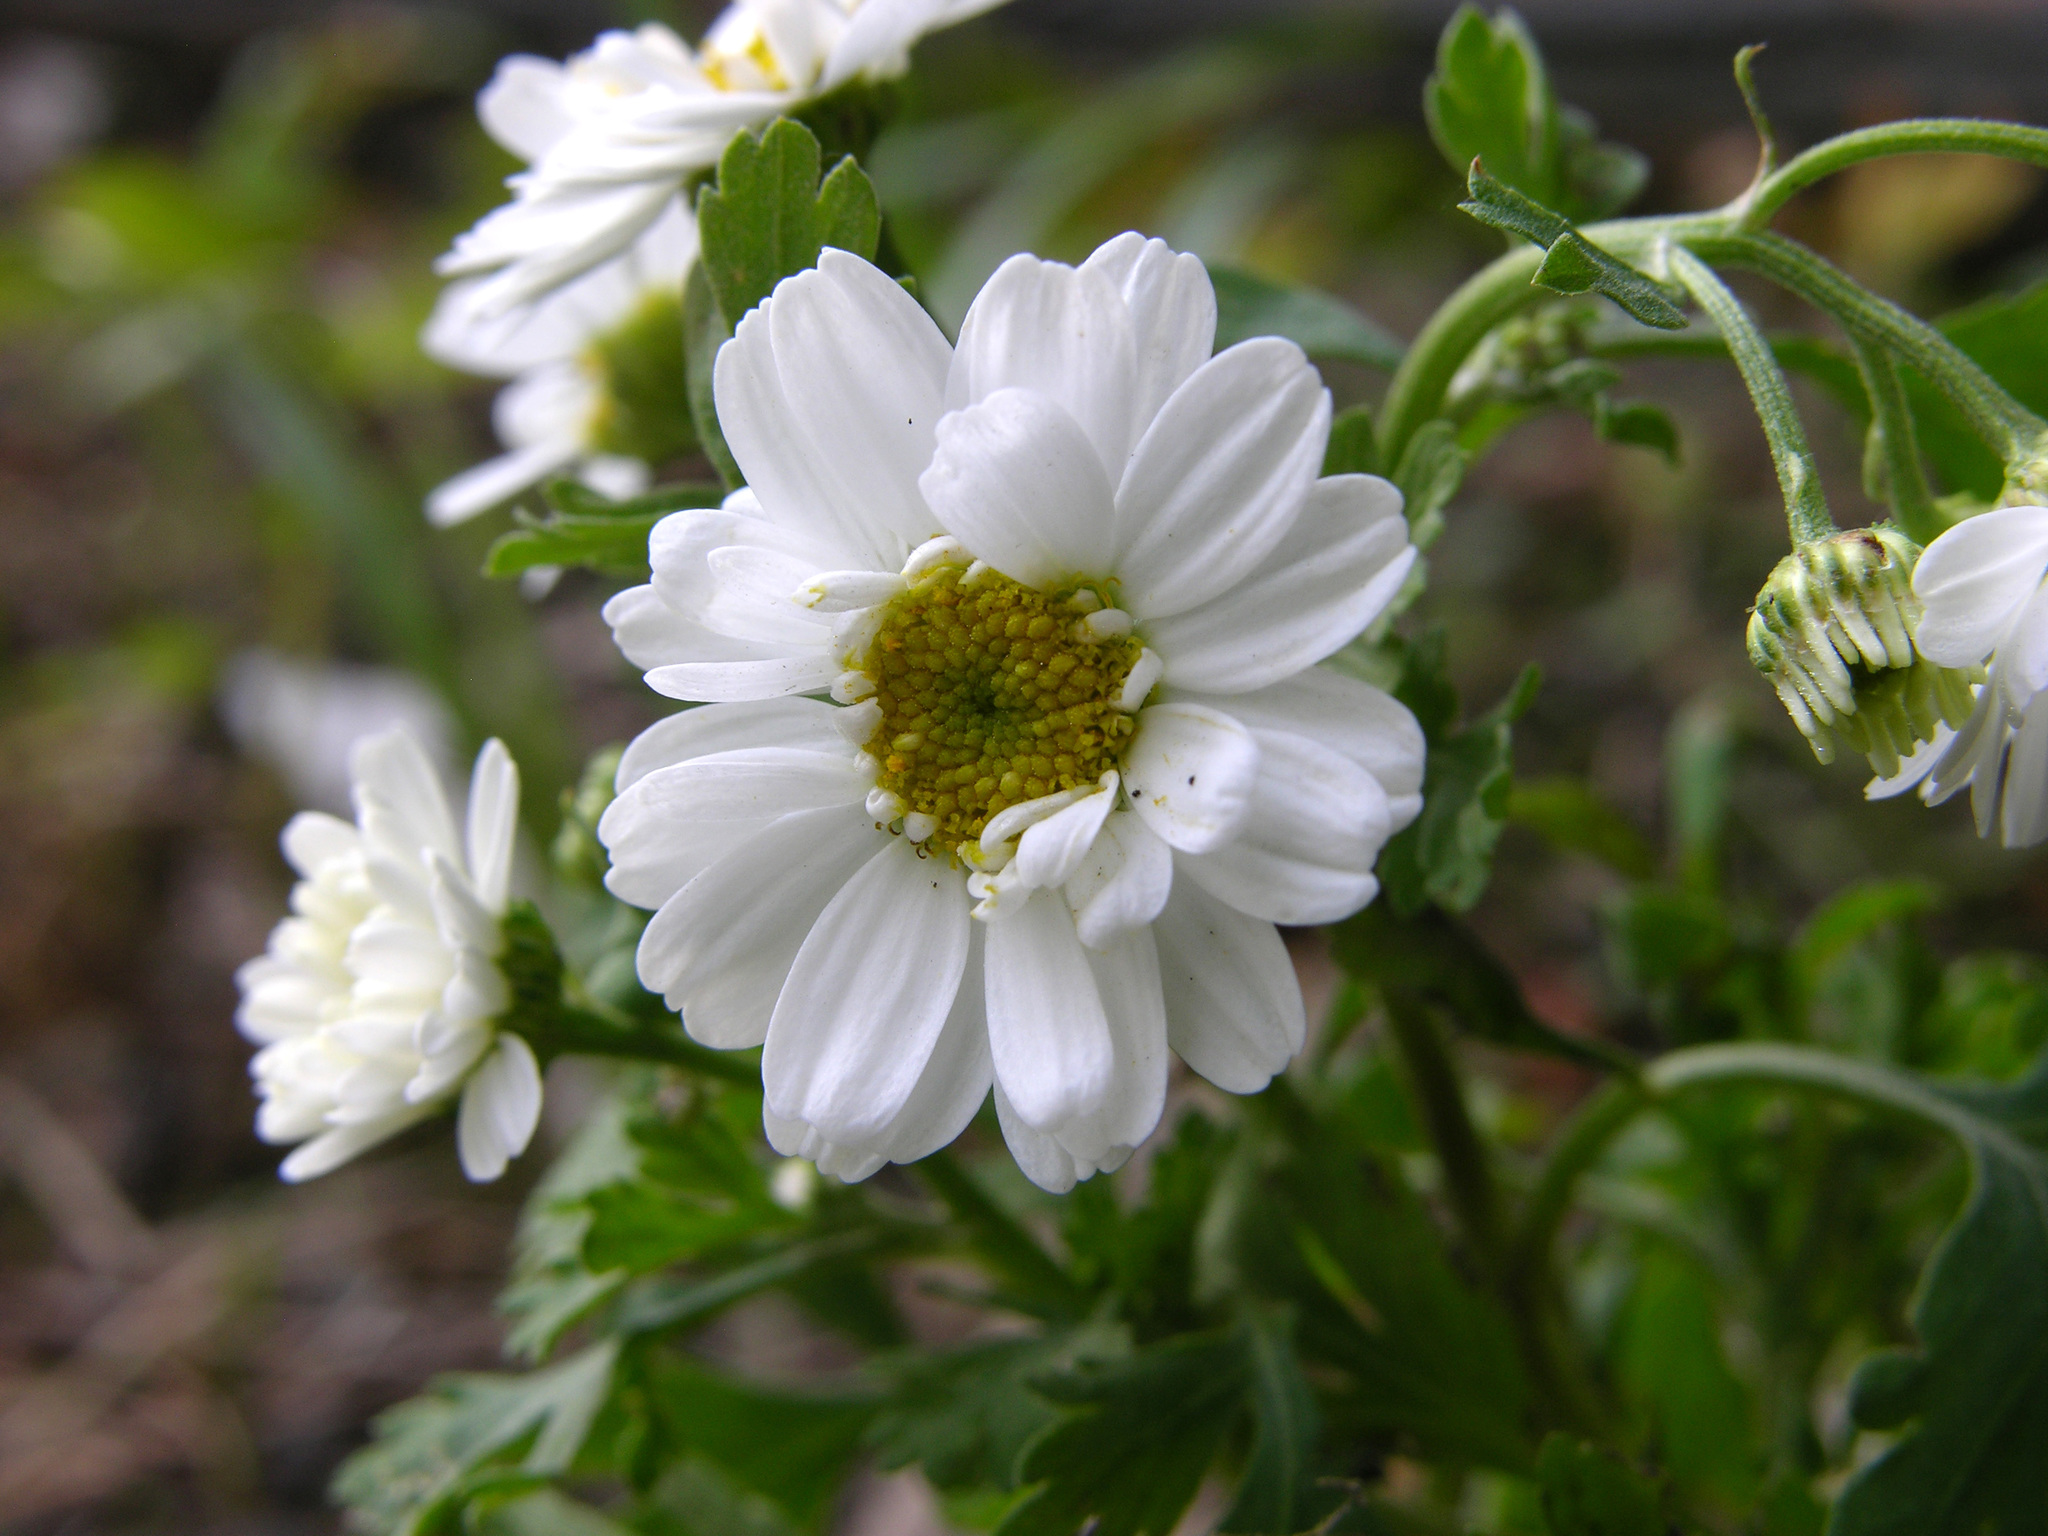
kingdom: Plantae
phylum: Tracheophyta
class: Magnoliopsida
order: Asterales
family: Asteraceae
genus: Tanacetum
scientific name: Tanacetum parthenium
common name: Feverfew
